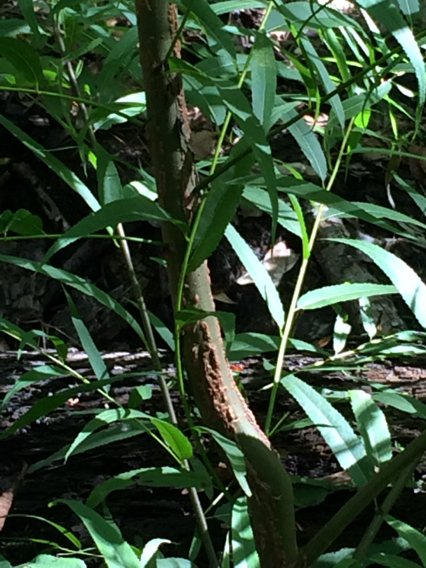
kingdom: Plantae
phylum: Tracheophyta
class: Magnoliopsida
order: Malpighiales
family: Salicaceae
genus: Salix
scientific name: Salix nigra
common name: Black willow
